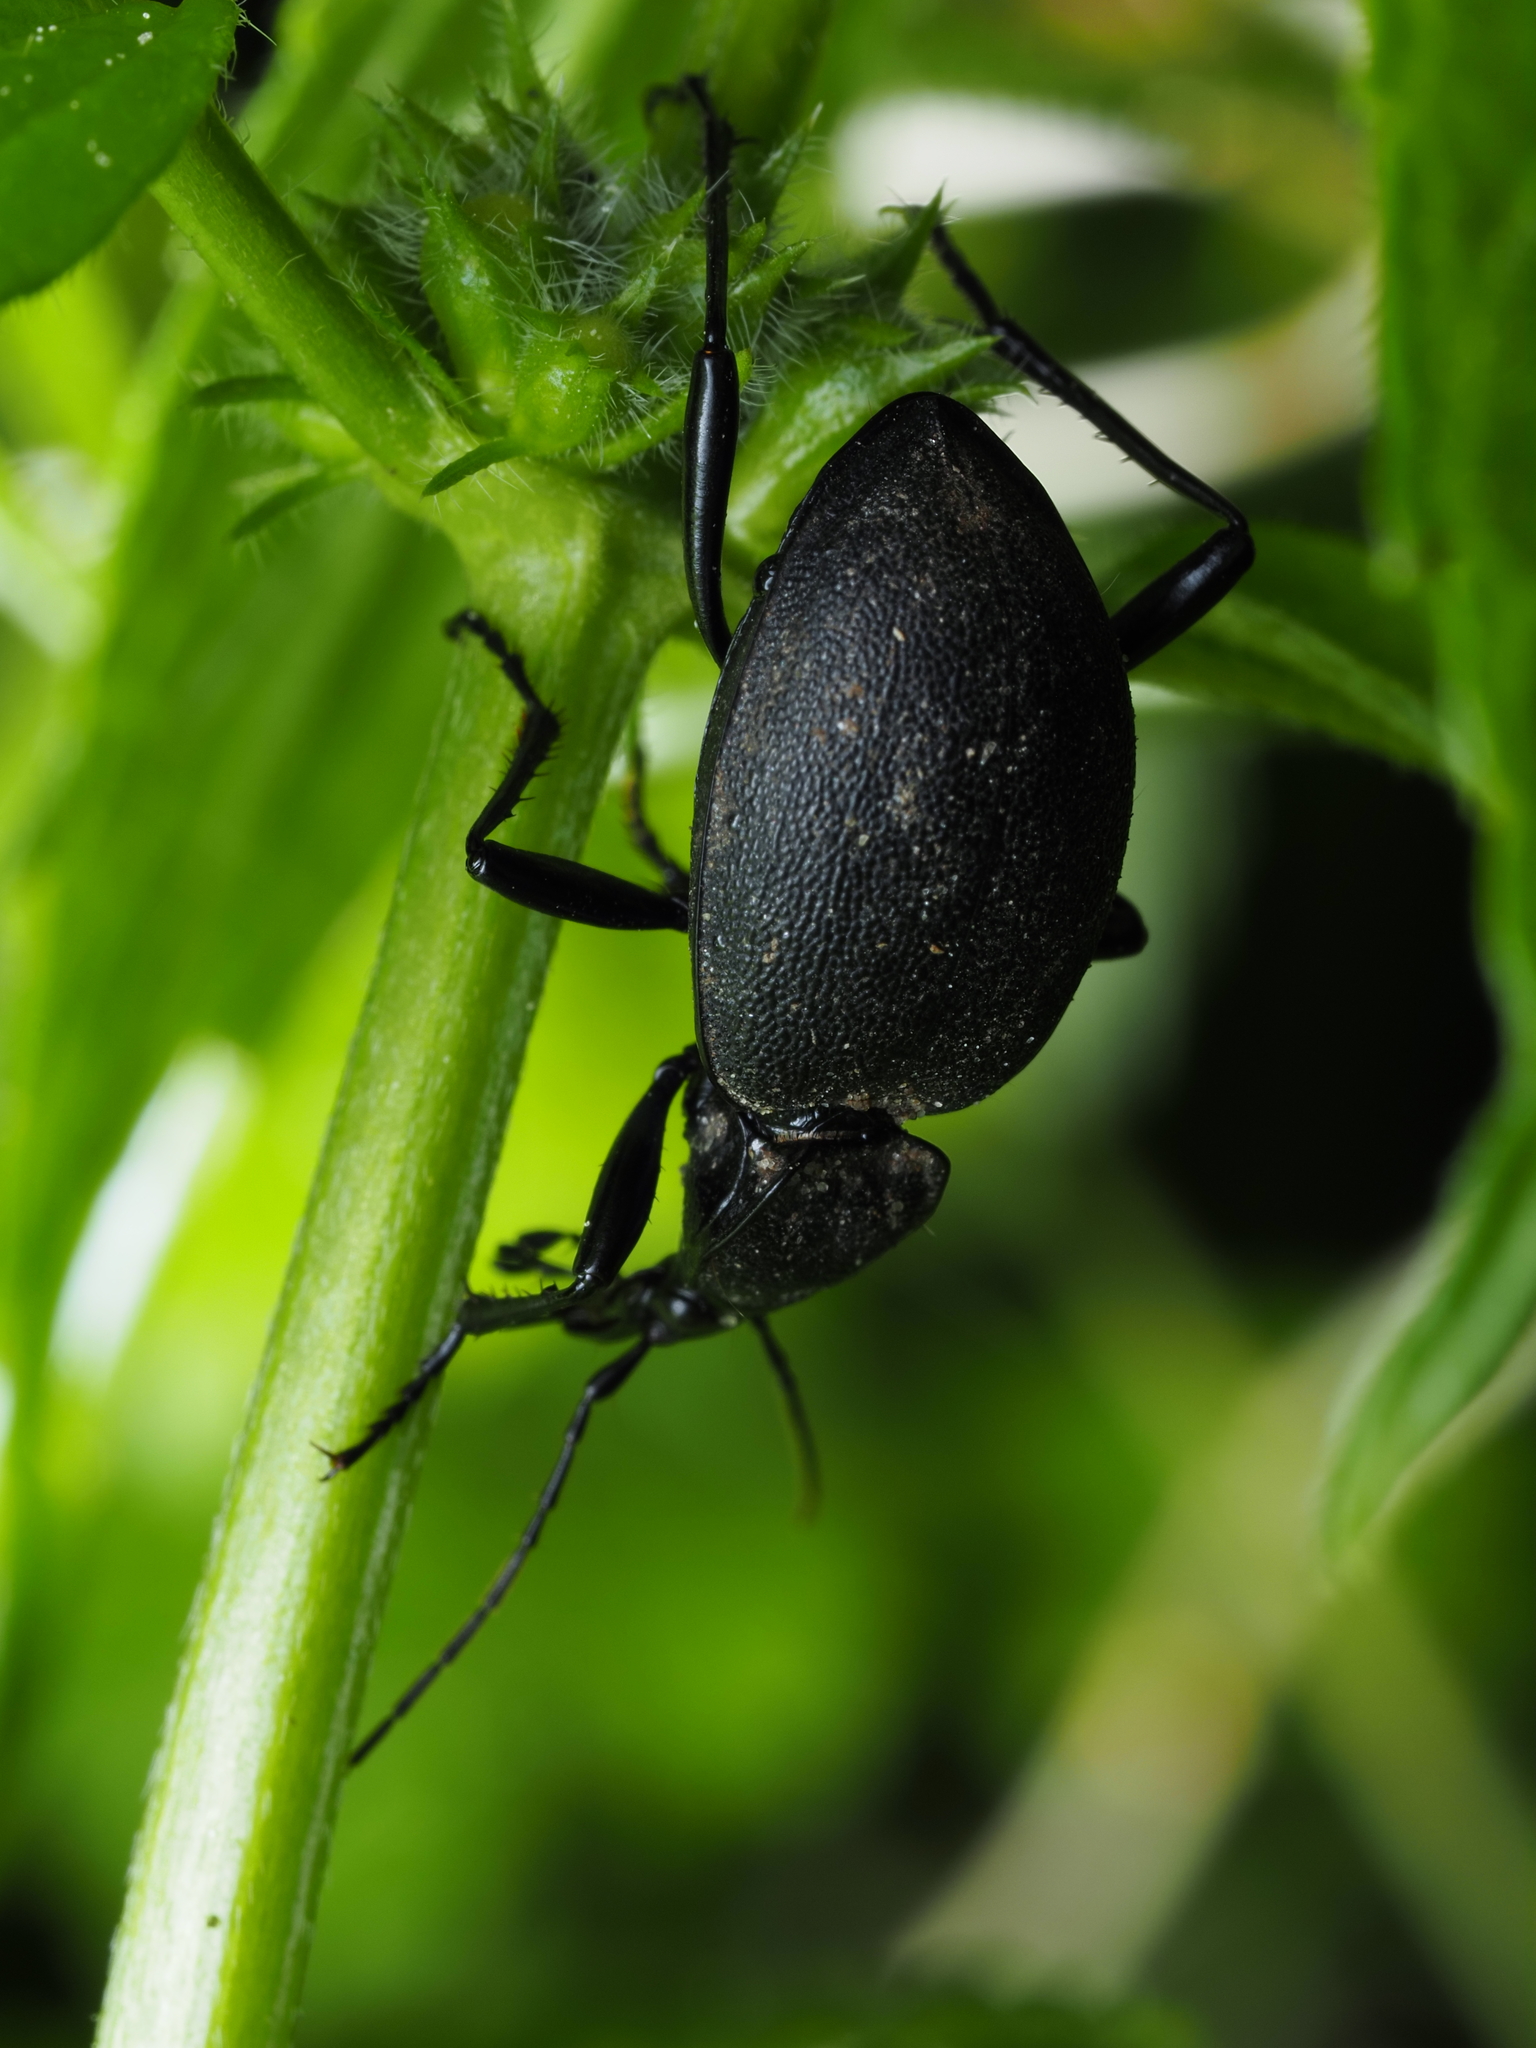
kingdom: Animalia
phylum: Arthropoda
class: Insecta
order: Coleoptera
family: Carabidae
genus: Carabus
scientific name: Carabus coriaceus
